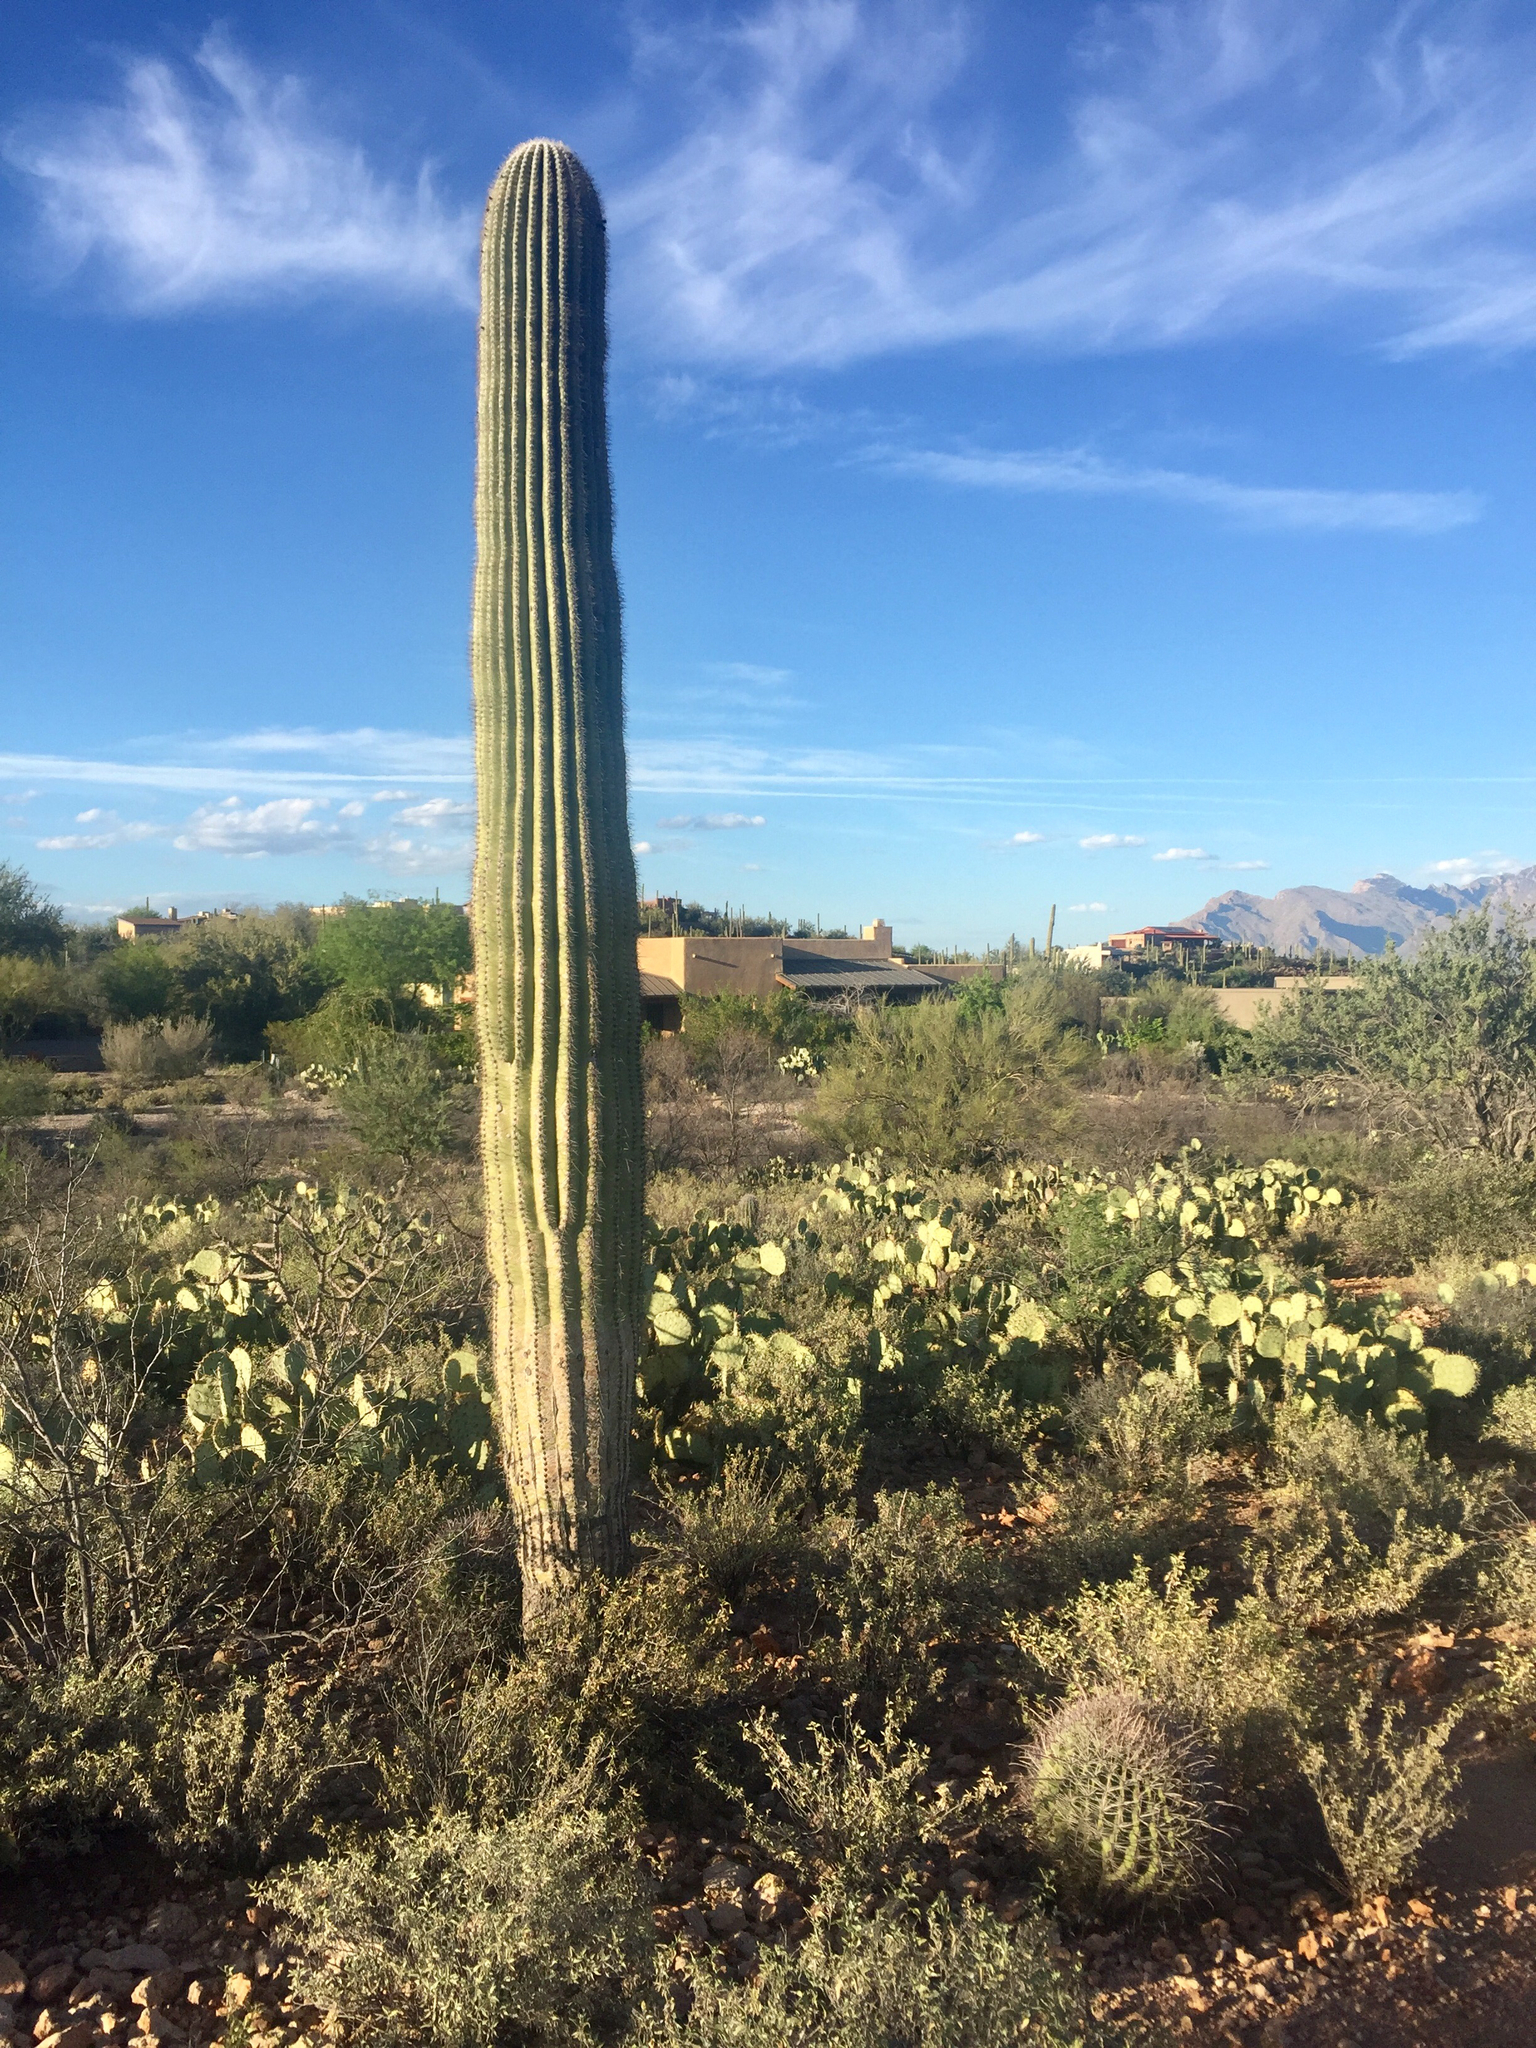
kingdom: Plantae
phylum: Tracheophyta
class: Magnoliopsida
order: Caryophyllales
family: Cactaceae
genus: Carnegiea
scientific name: Carnegiea gigantea
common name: Saguaro
